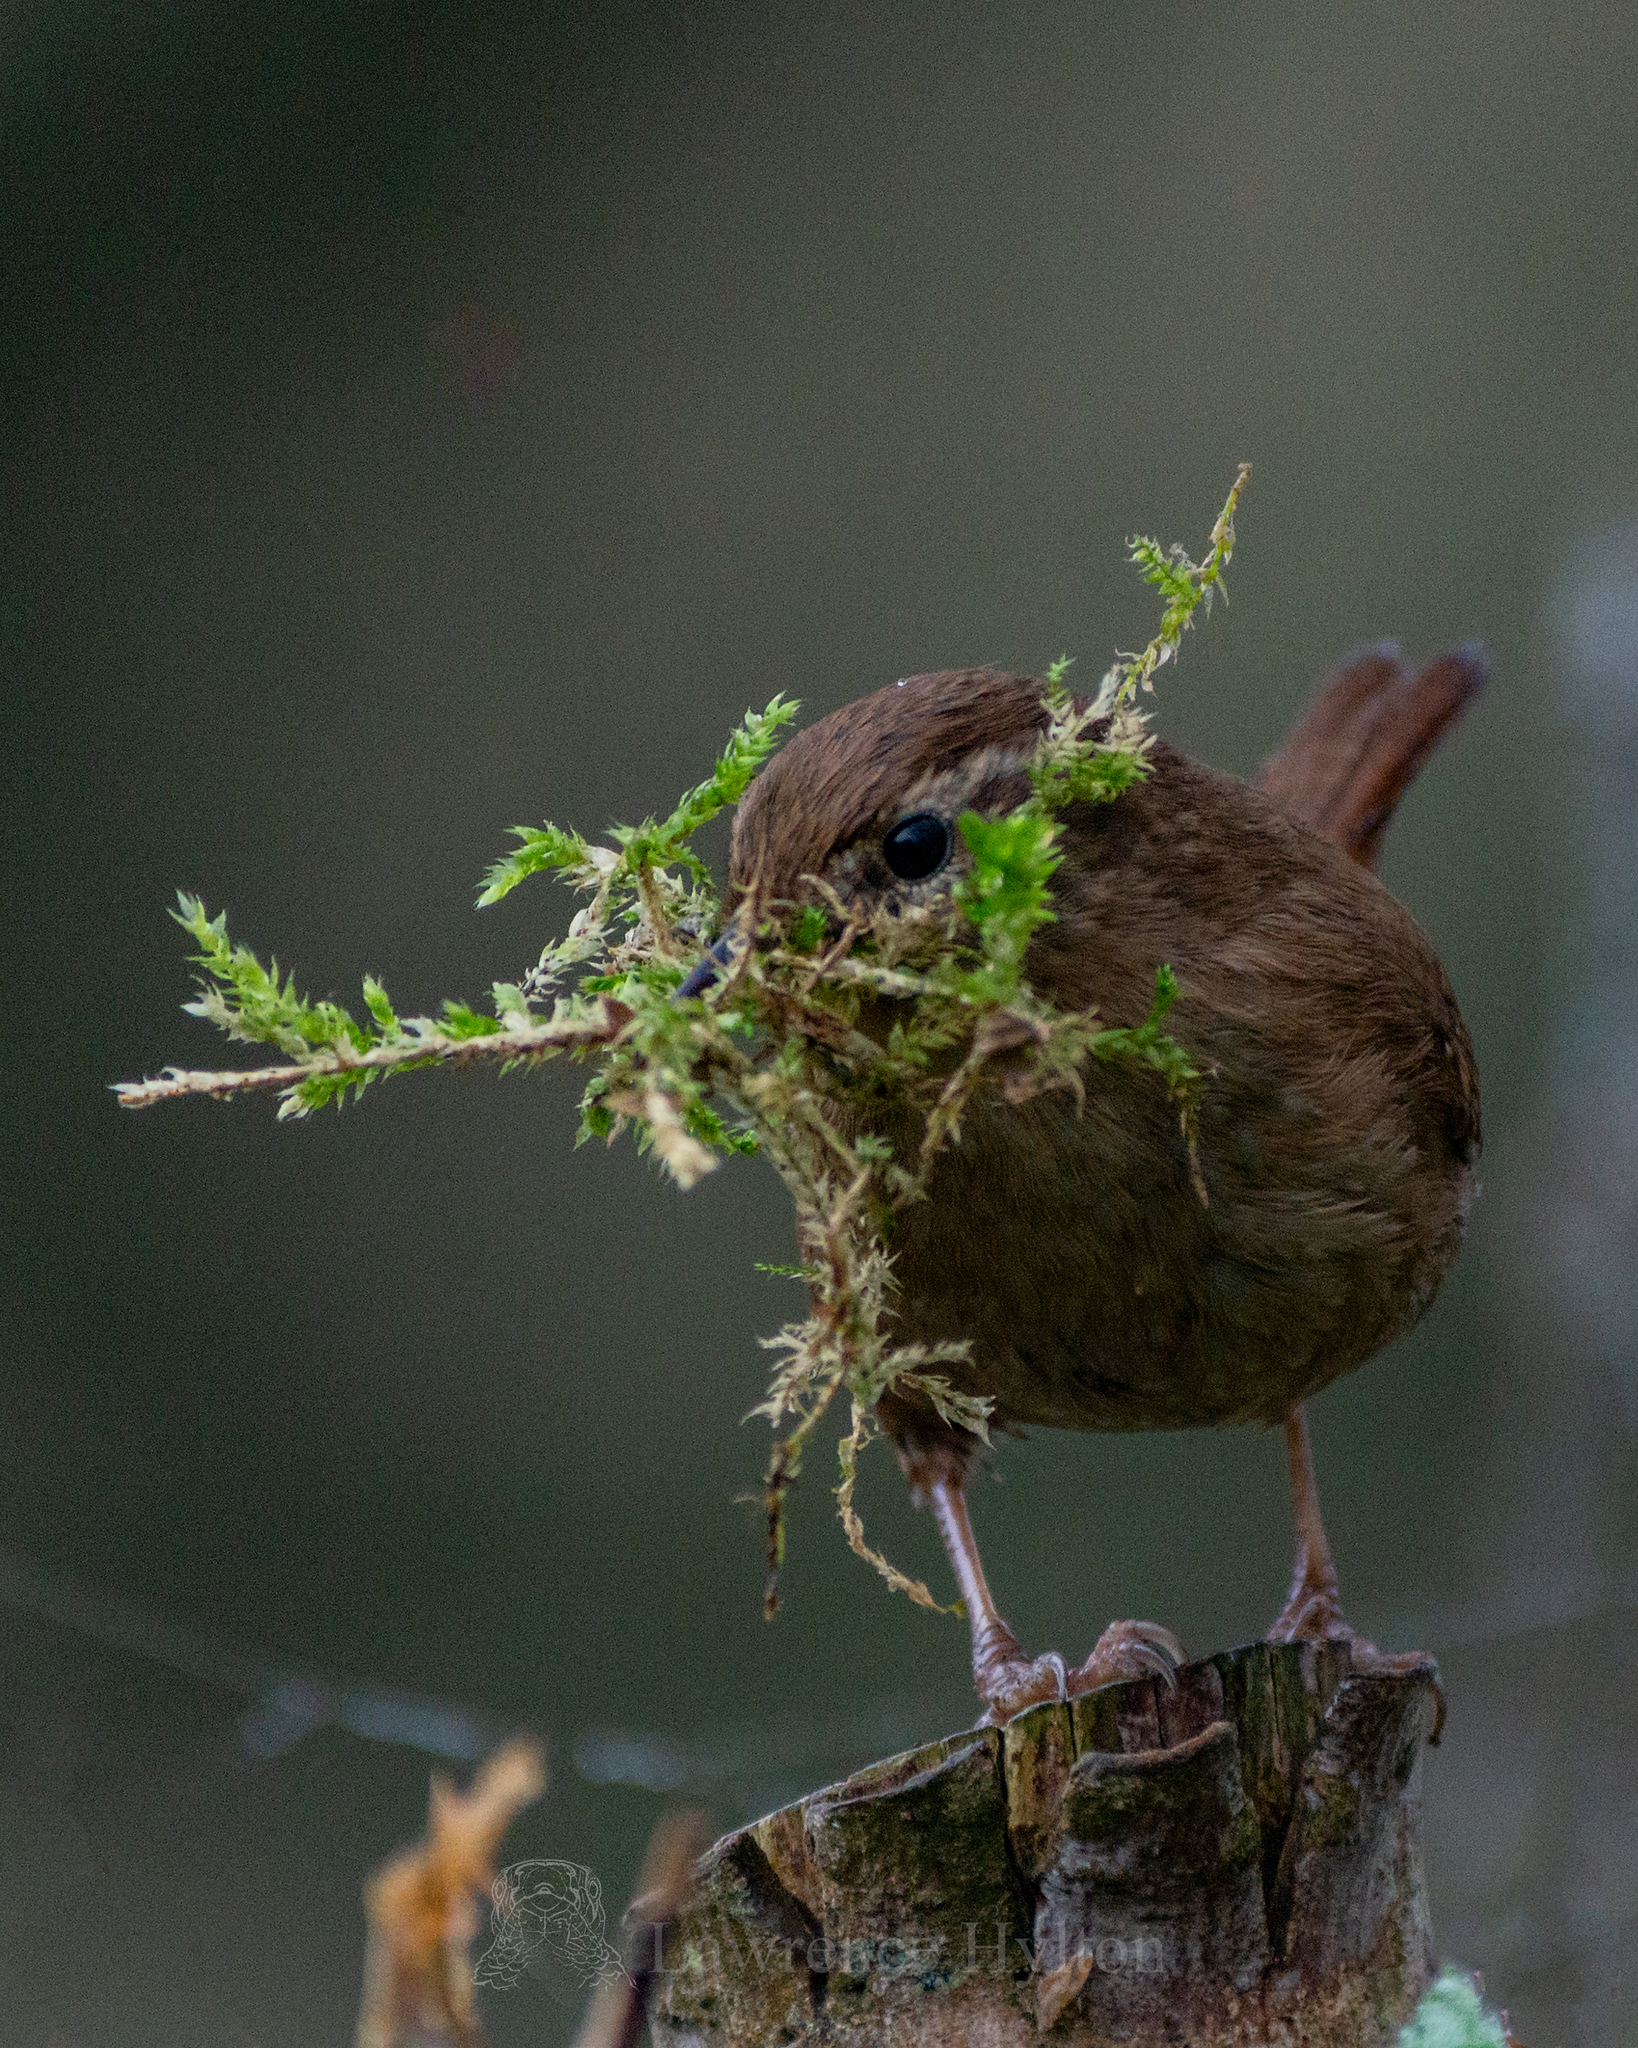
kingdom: Animalia
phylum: Chordata
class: Aves
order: Passeriformes
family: Troglodytidae
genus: Troglodytes
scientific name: Troglodytes troglodytes
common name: Eurasian wren
